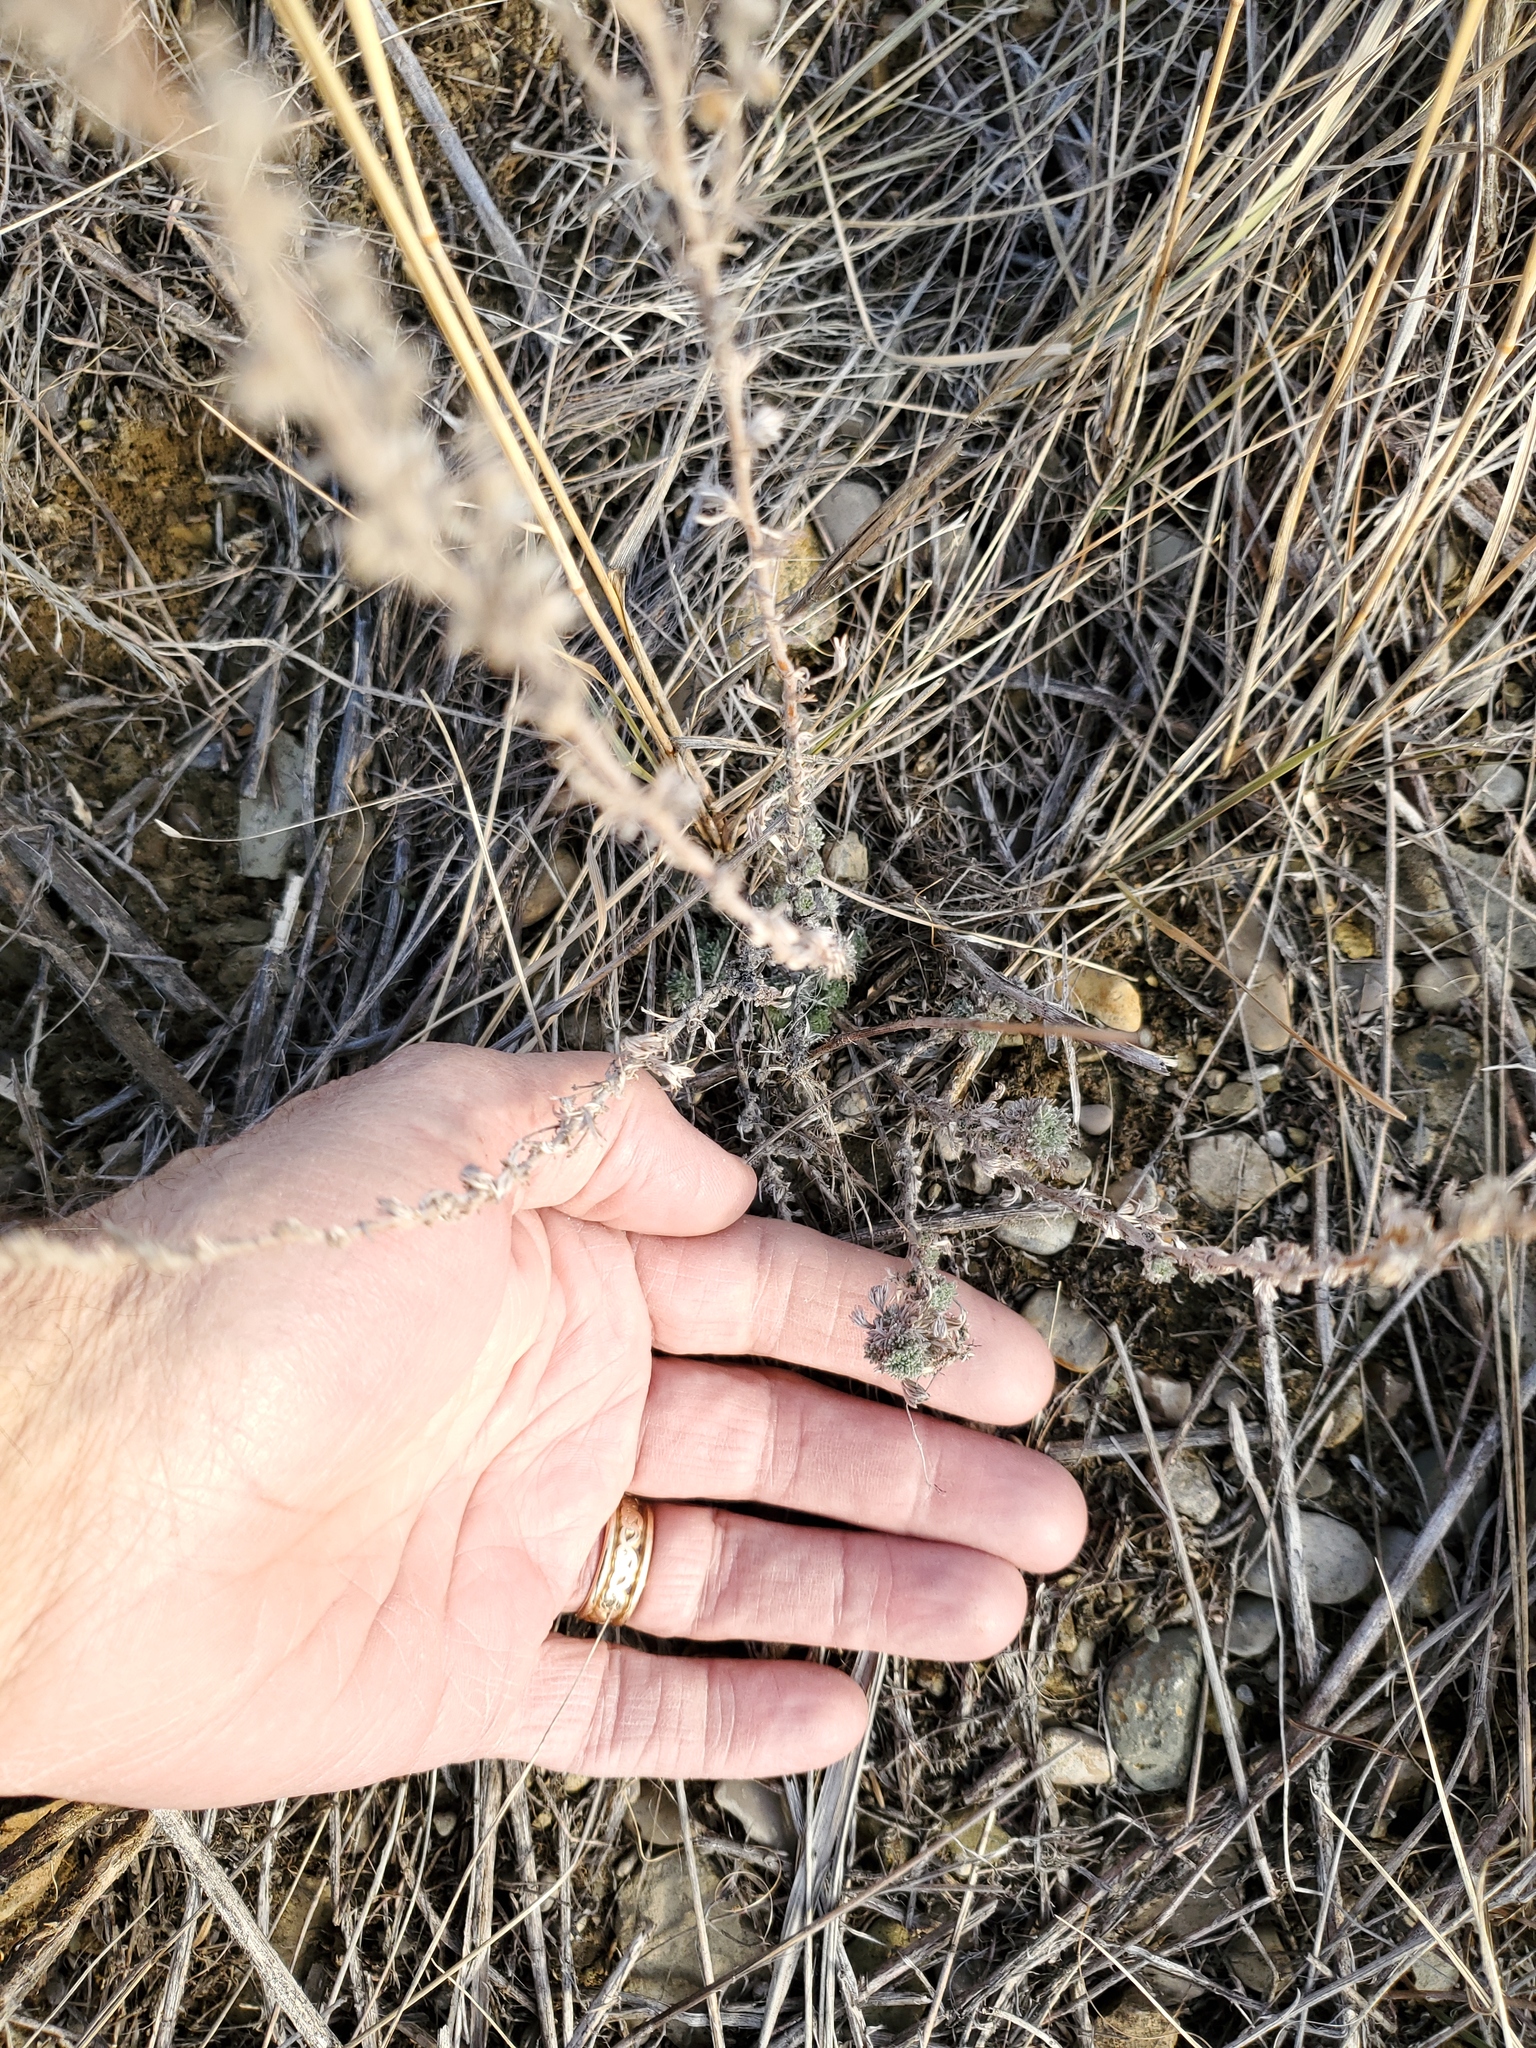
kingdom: Plantae
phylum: Tracheophyta
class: Magnoliopsida
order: Asterales
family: Asteraceae
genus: Artemisia
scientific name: Artemisia frigida
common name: Prairie sagewort
